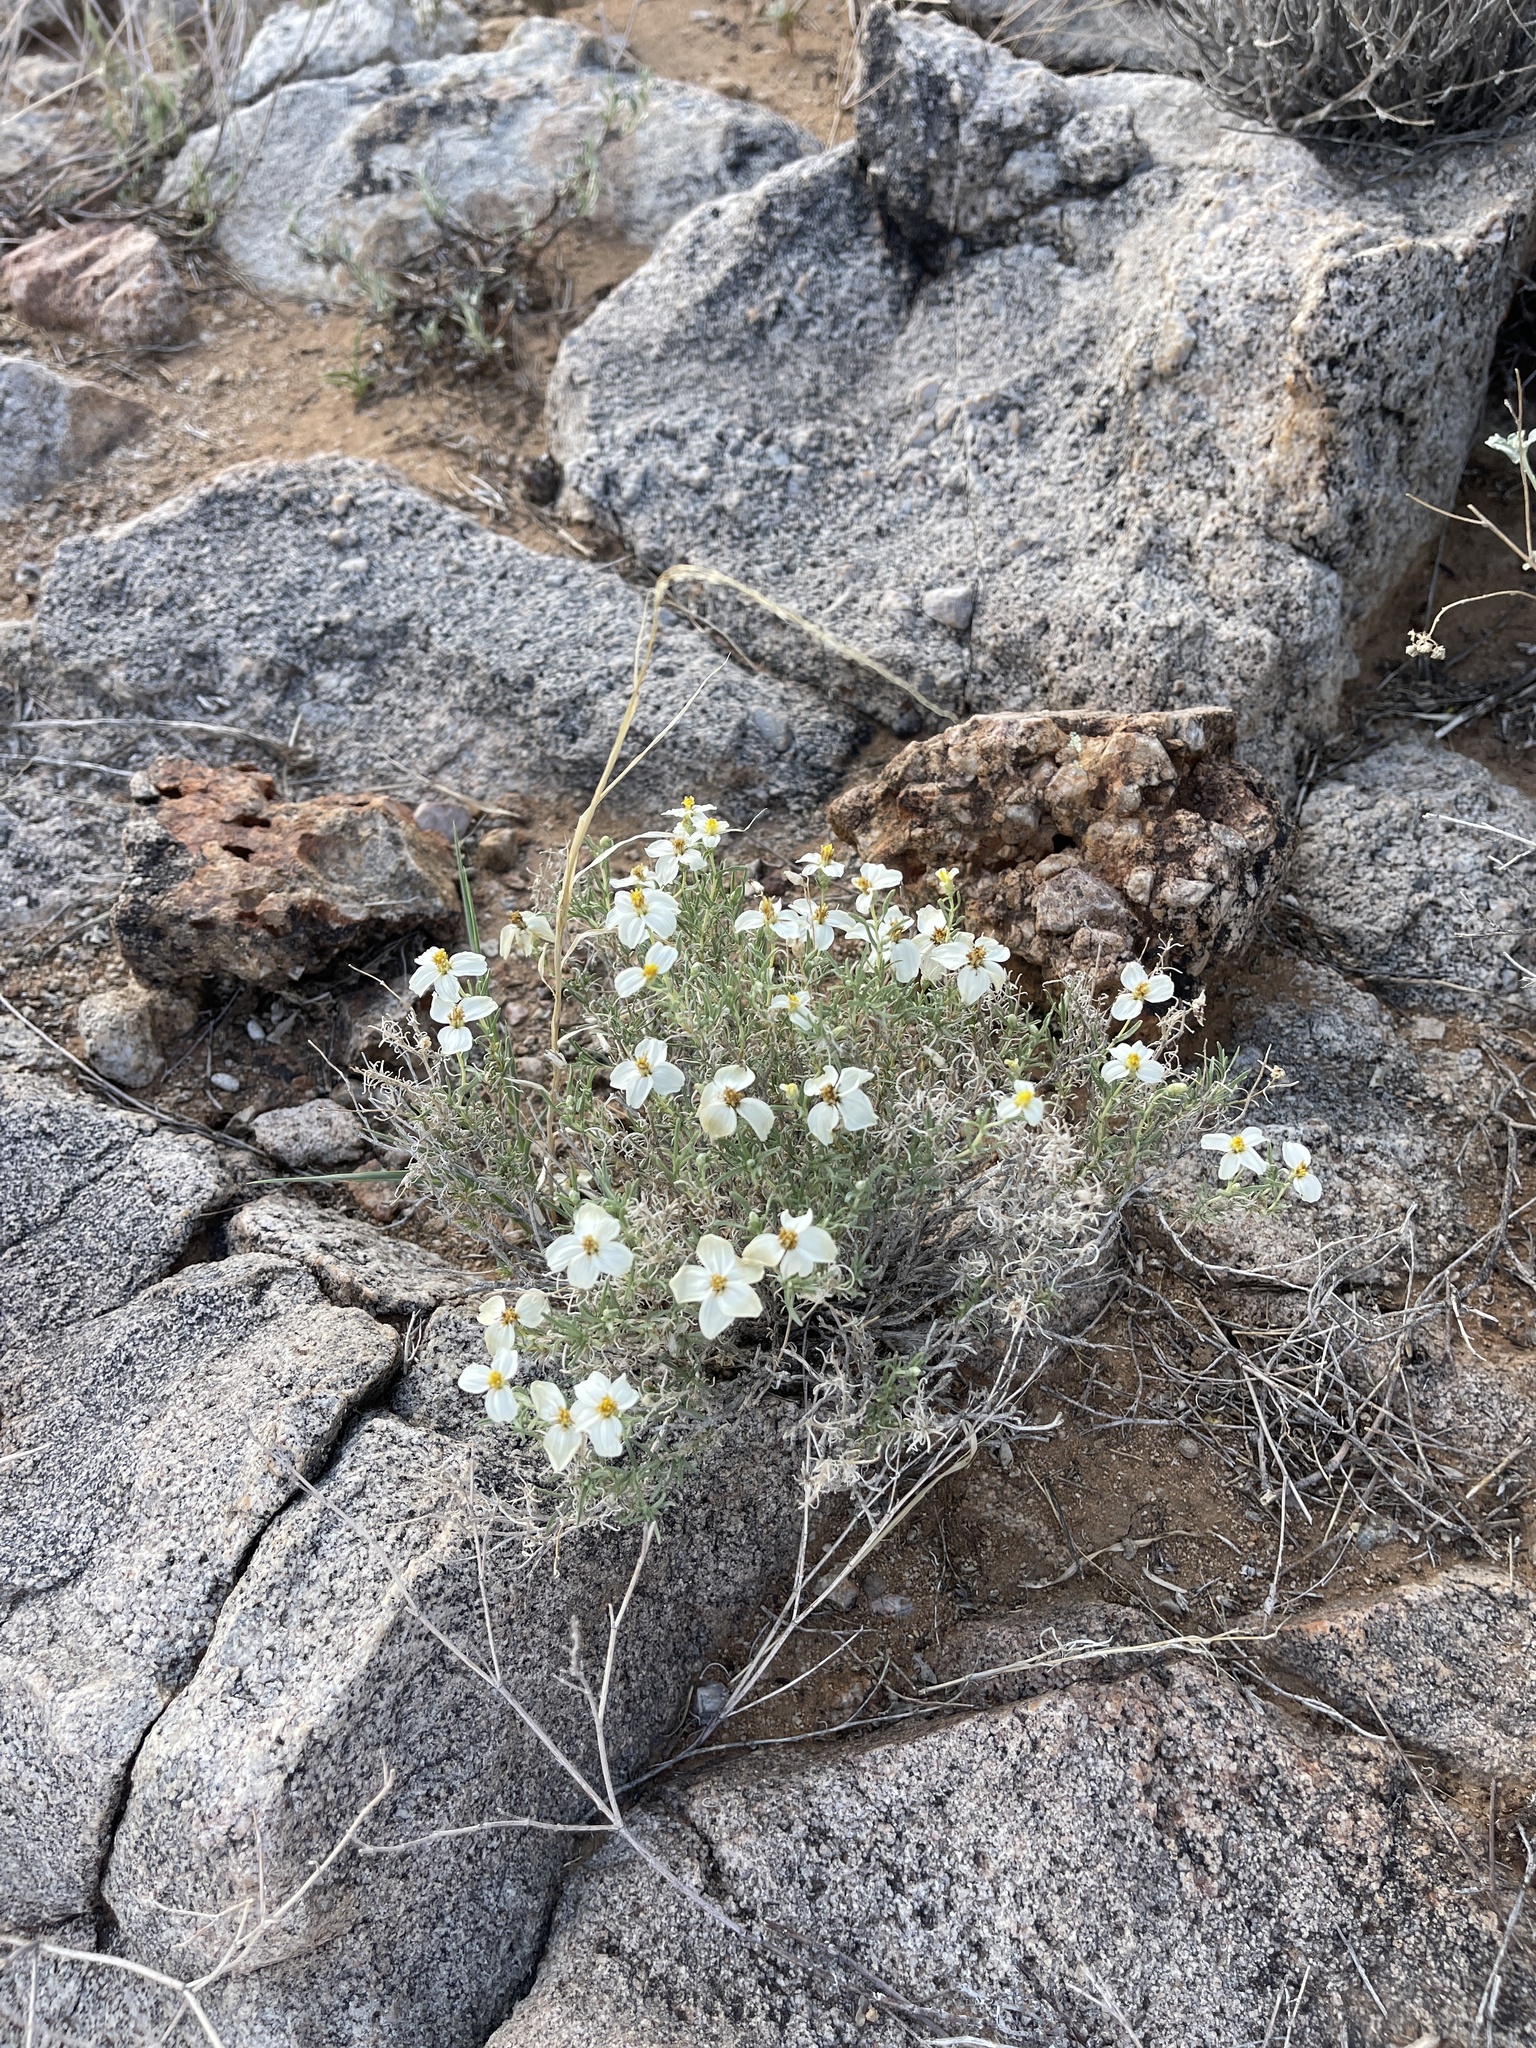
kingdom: Plantae
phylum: Tracheophyta
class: Magnoliopsida
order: Asterales
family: Asteraceae
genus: Zinnia
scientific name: Zinnia acerosa
